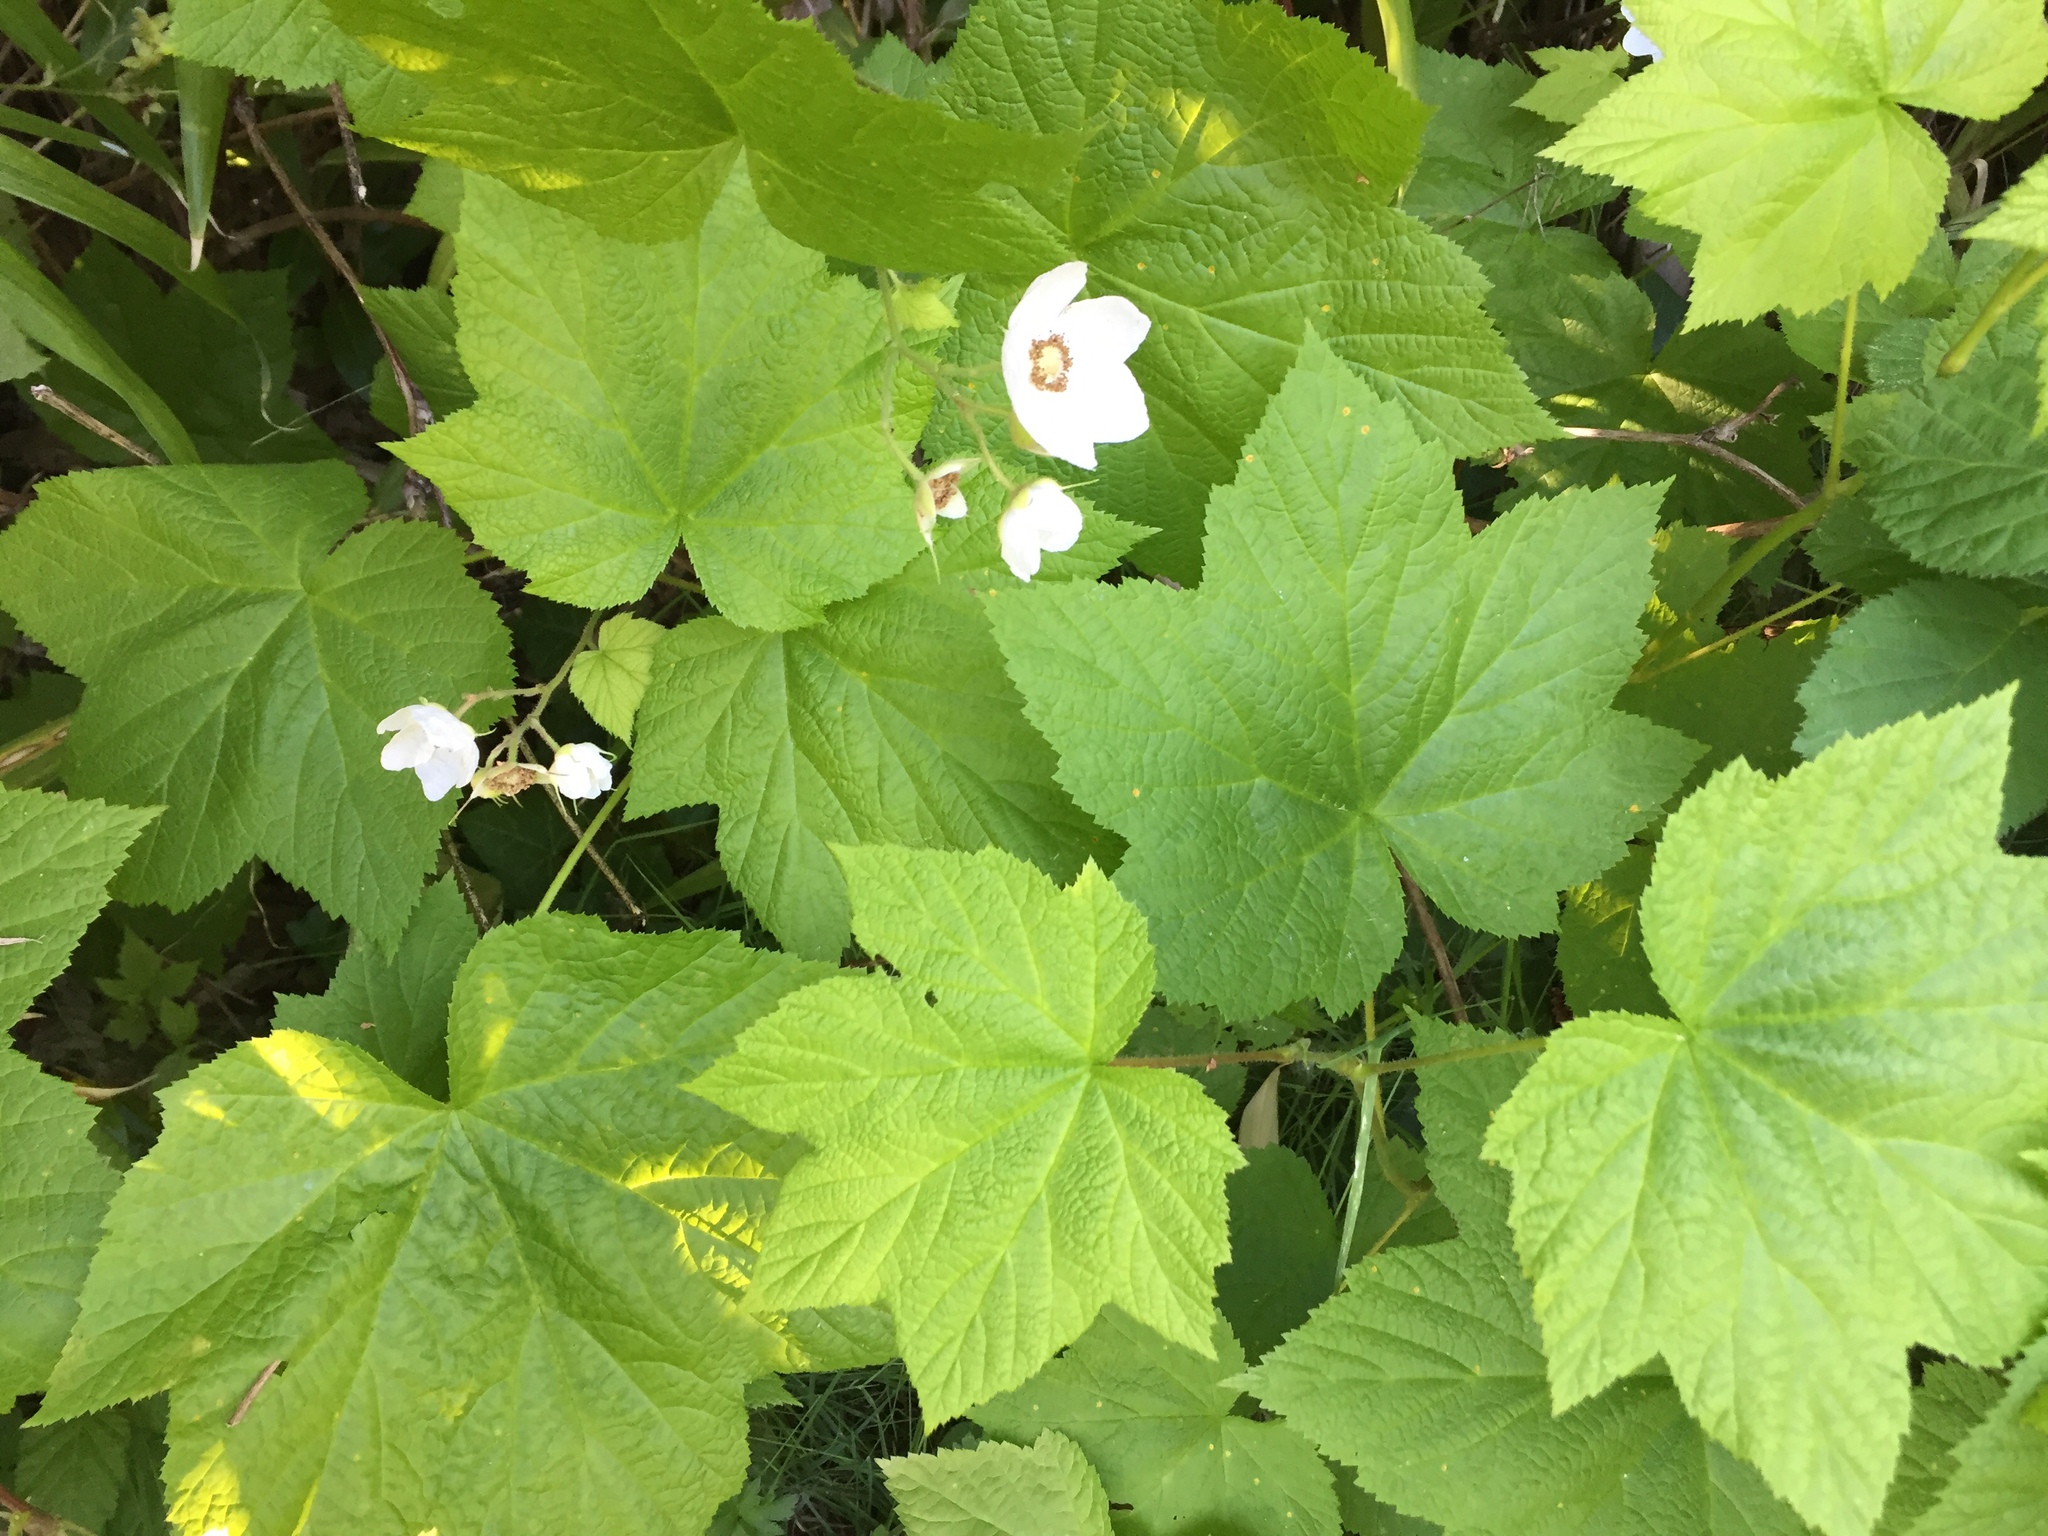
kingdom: Plantae
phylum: Tracheophyta
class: Magnoliopsida
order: Rosales
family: Rosaceae
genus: Rubus
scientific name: Rubus parviflorus
